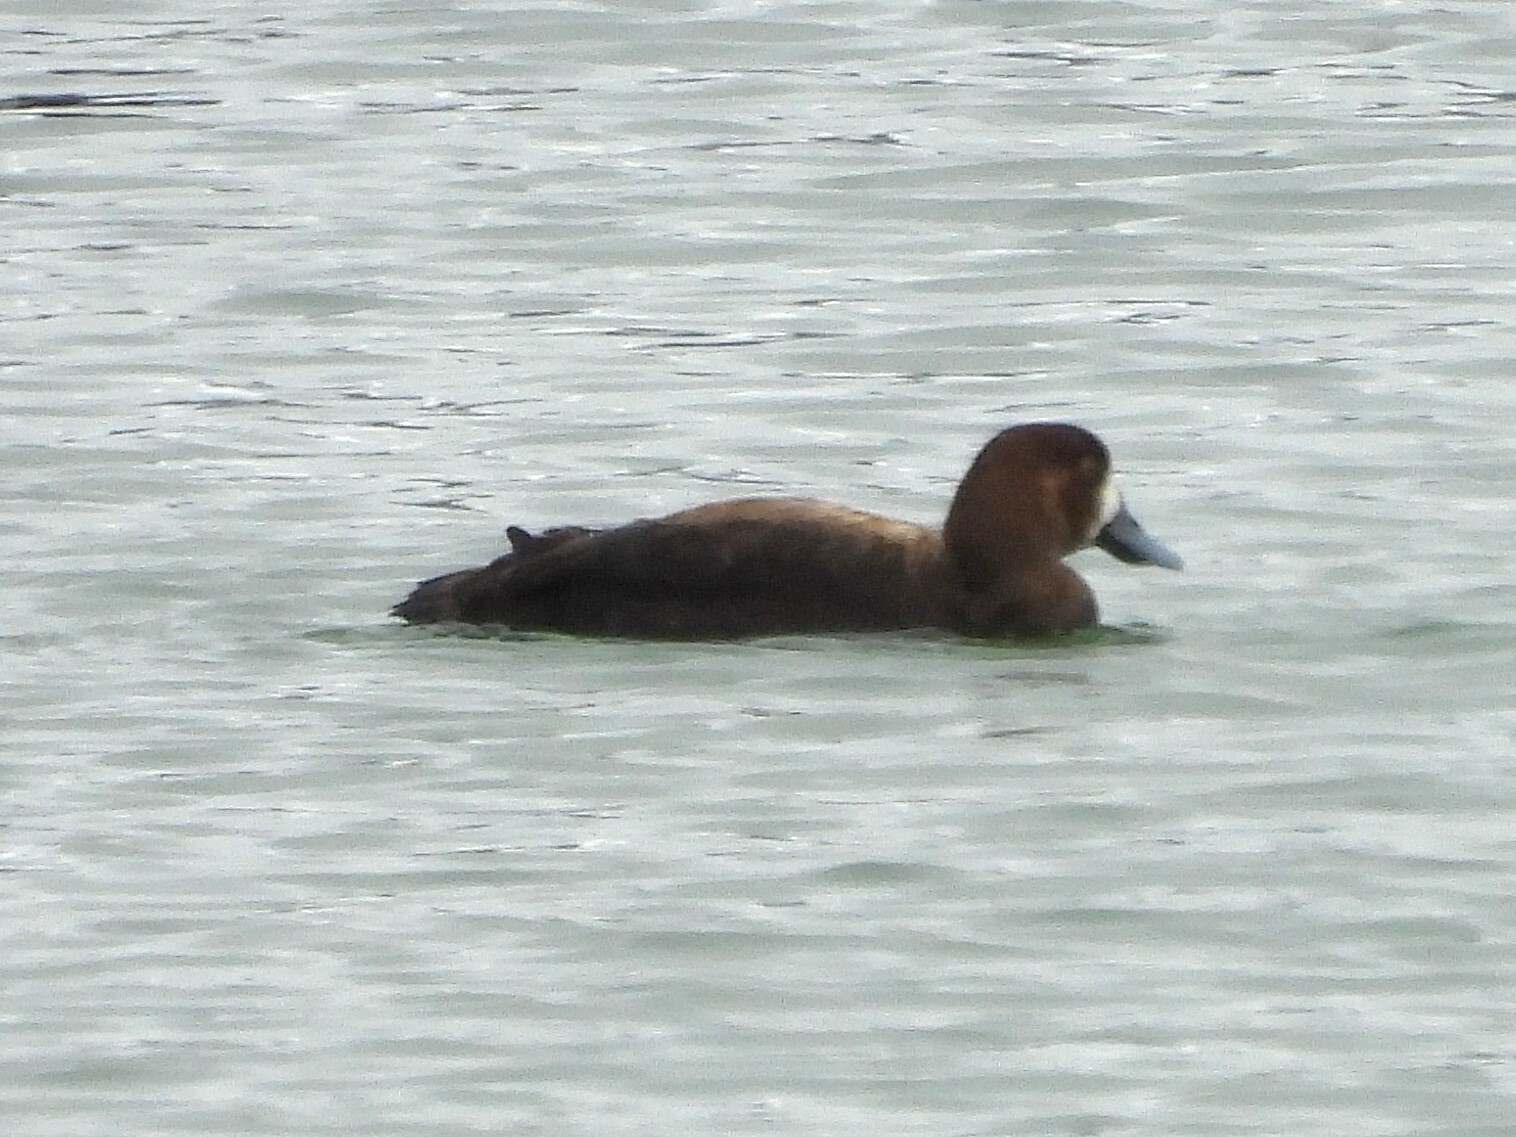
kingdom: Animalia
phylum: Chordata
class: Aves
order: Anseriformes
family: Anatidae
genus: Aythya
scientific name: Aythya marila
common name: Greater scaup
